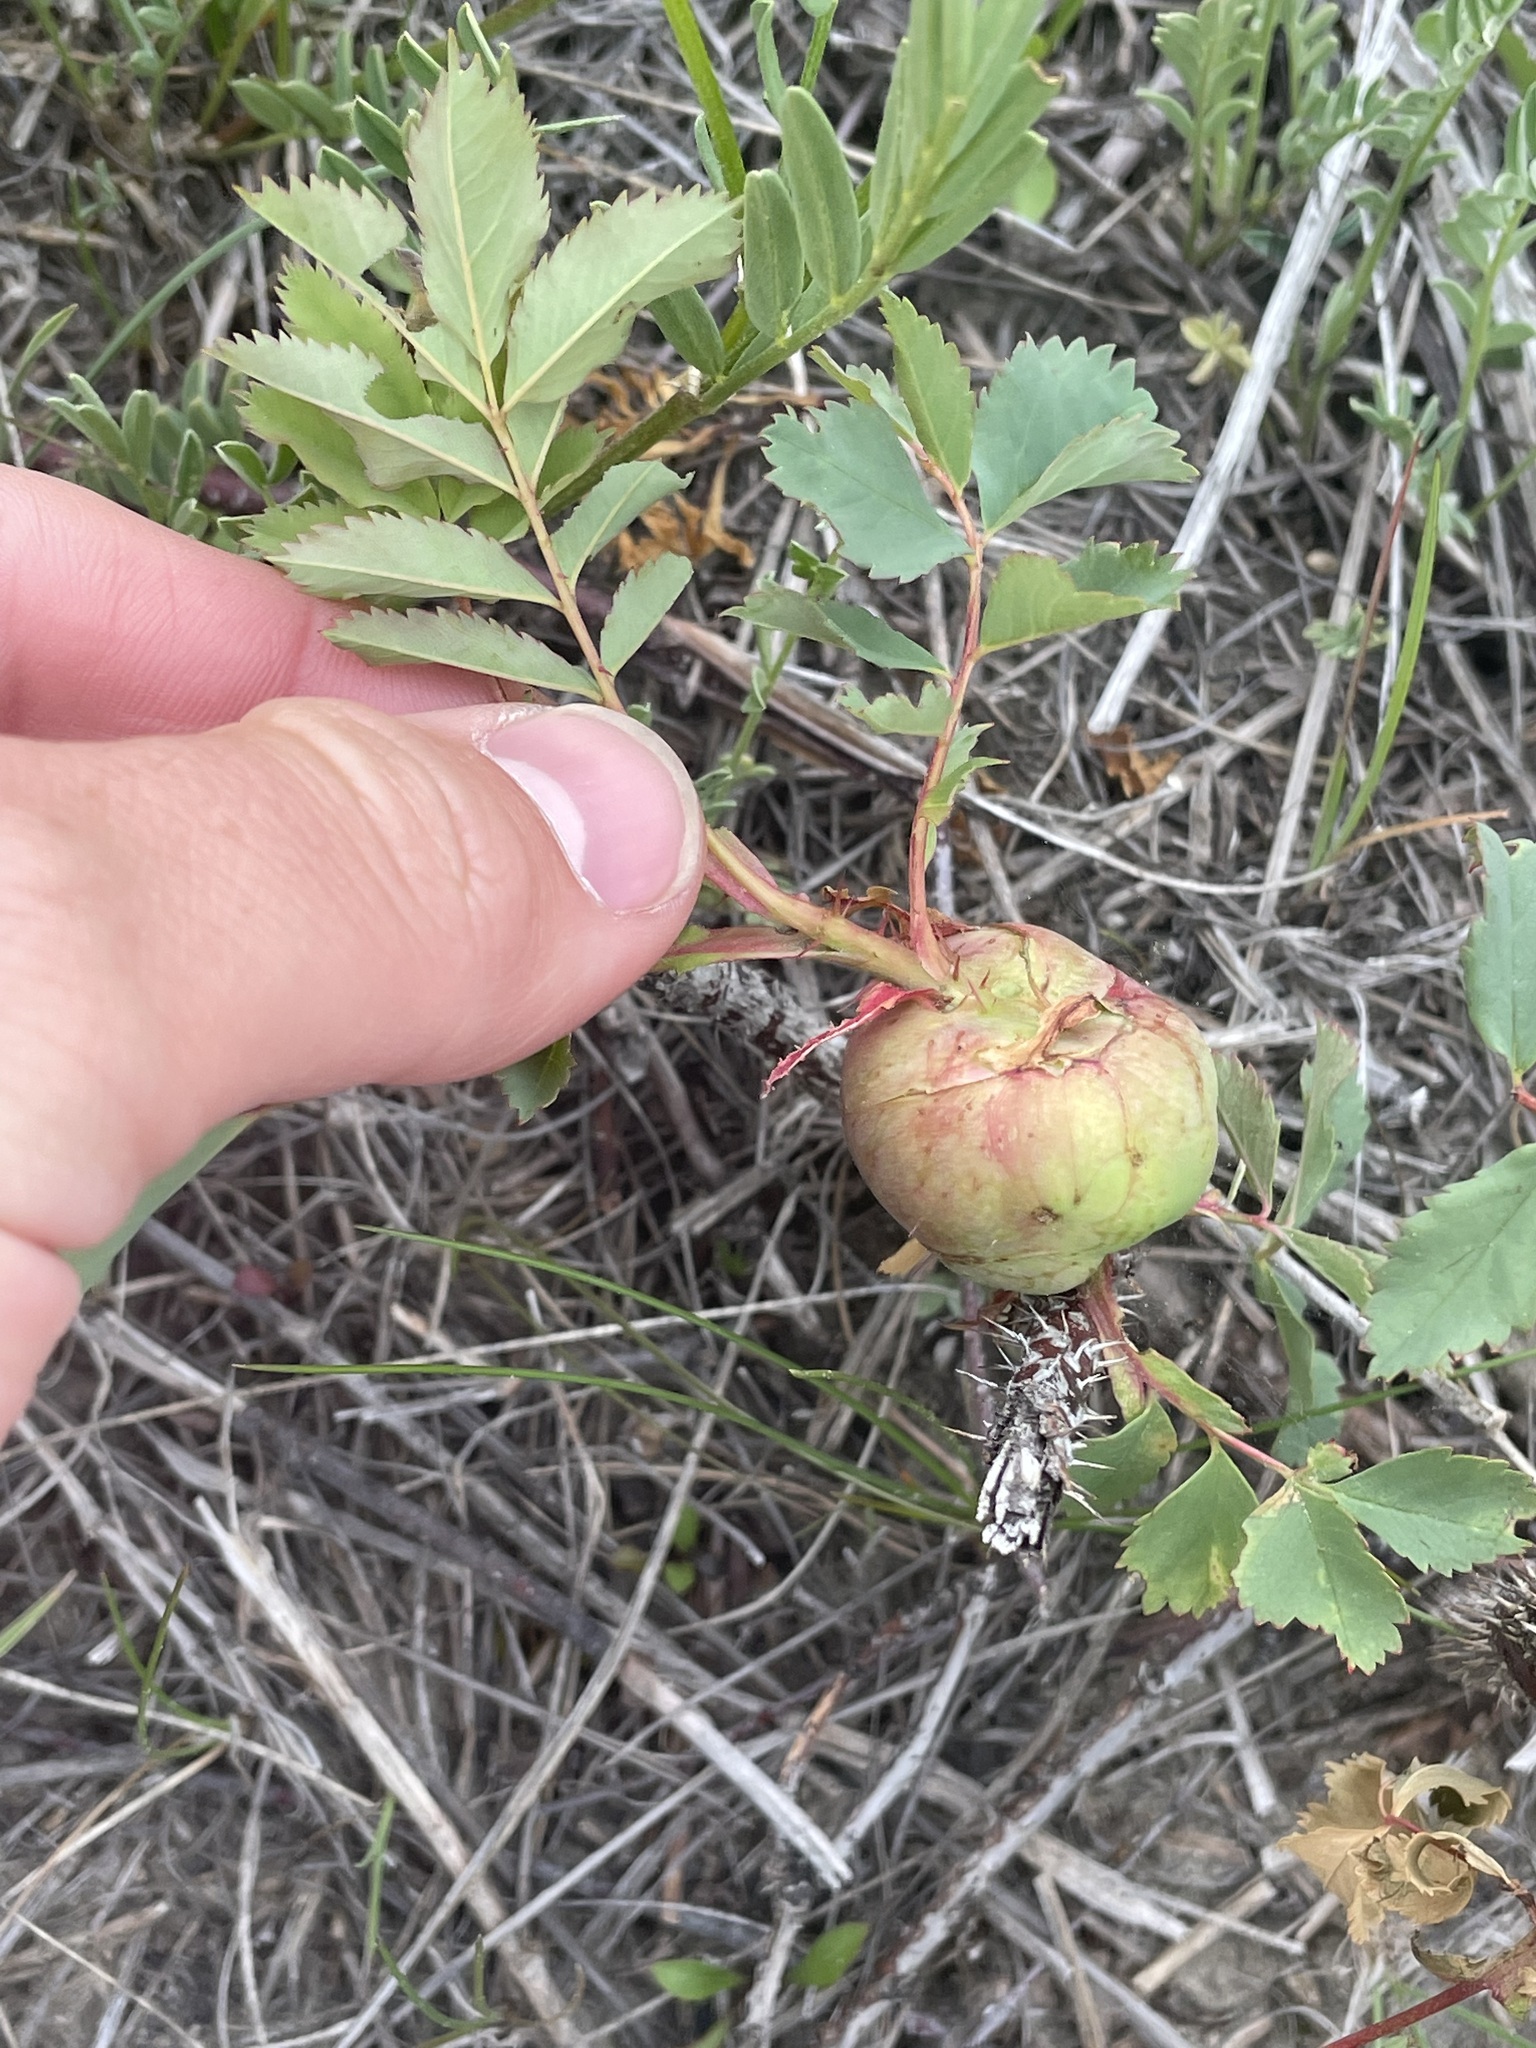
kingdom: Animalia
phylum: Arthropoda
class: Insecta
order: Hymenoptera
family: Cynipidae
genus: Diplolepis
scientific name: Diplolepis spinosa
